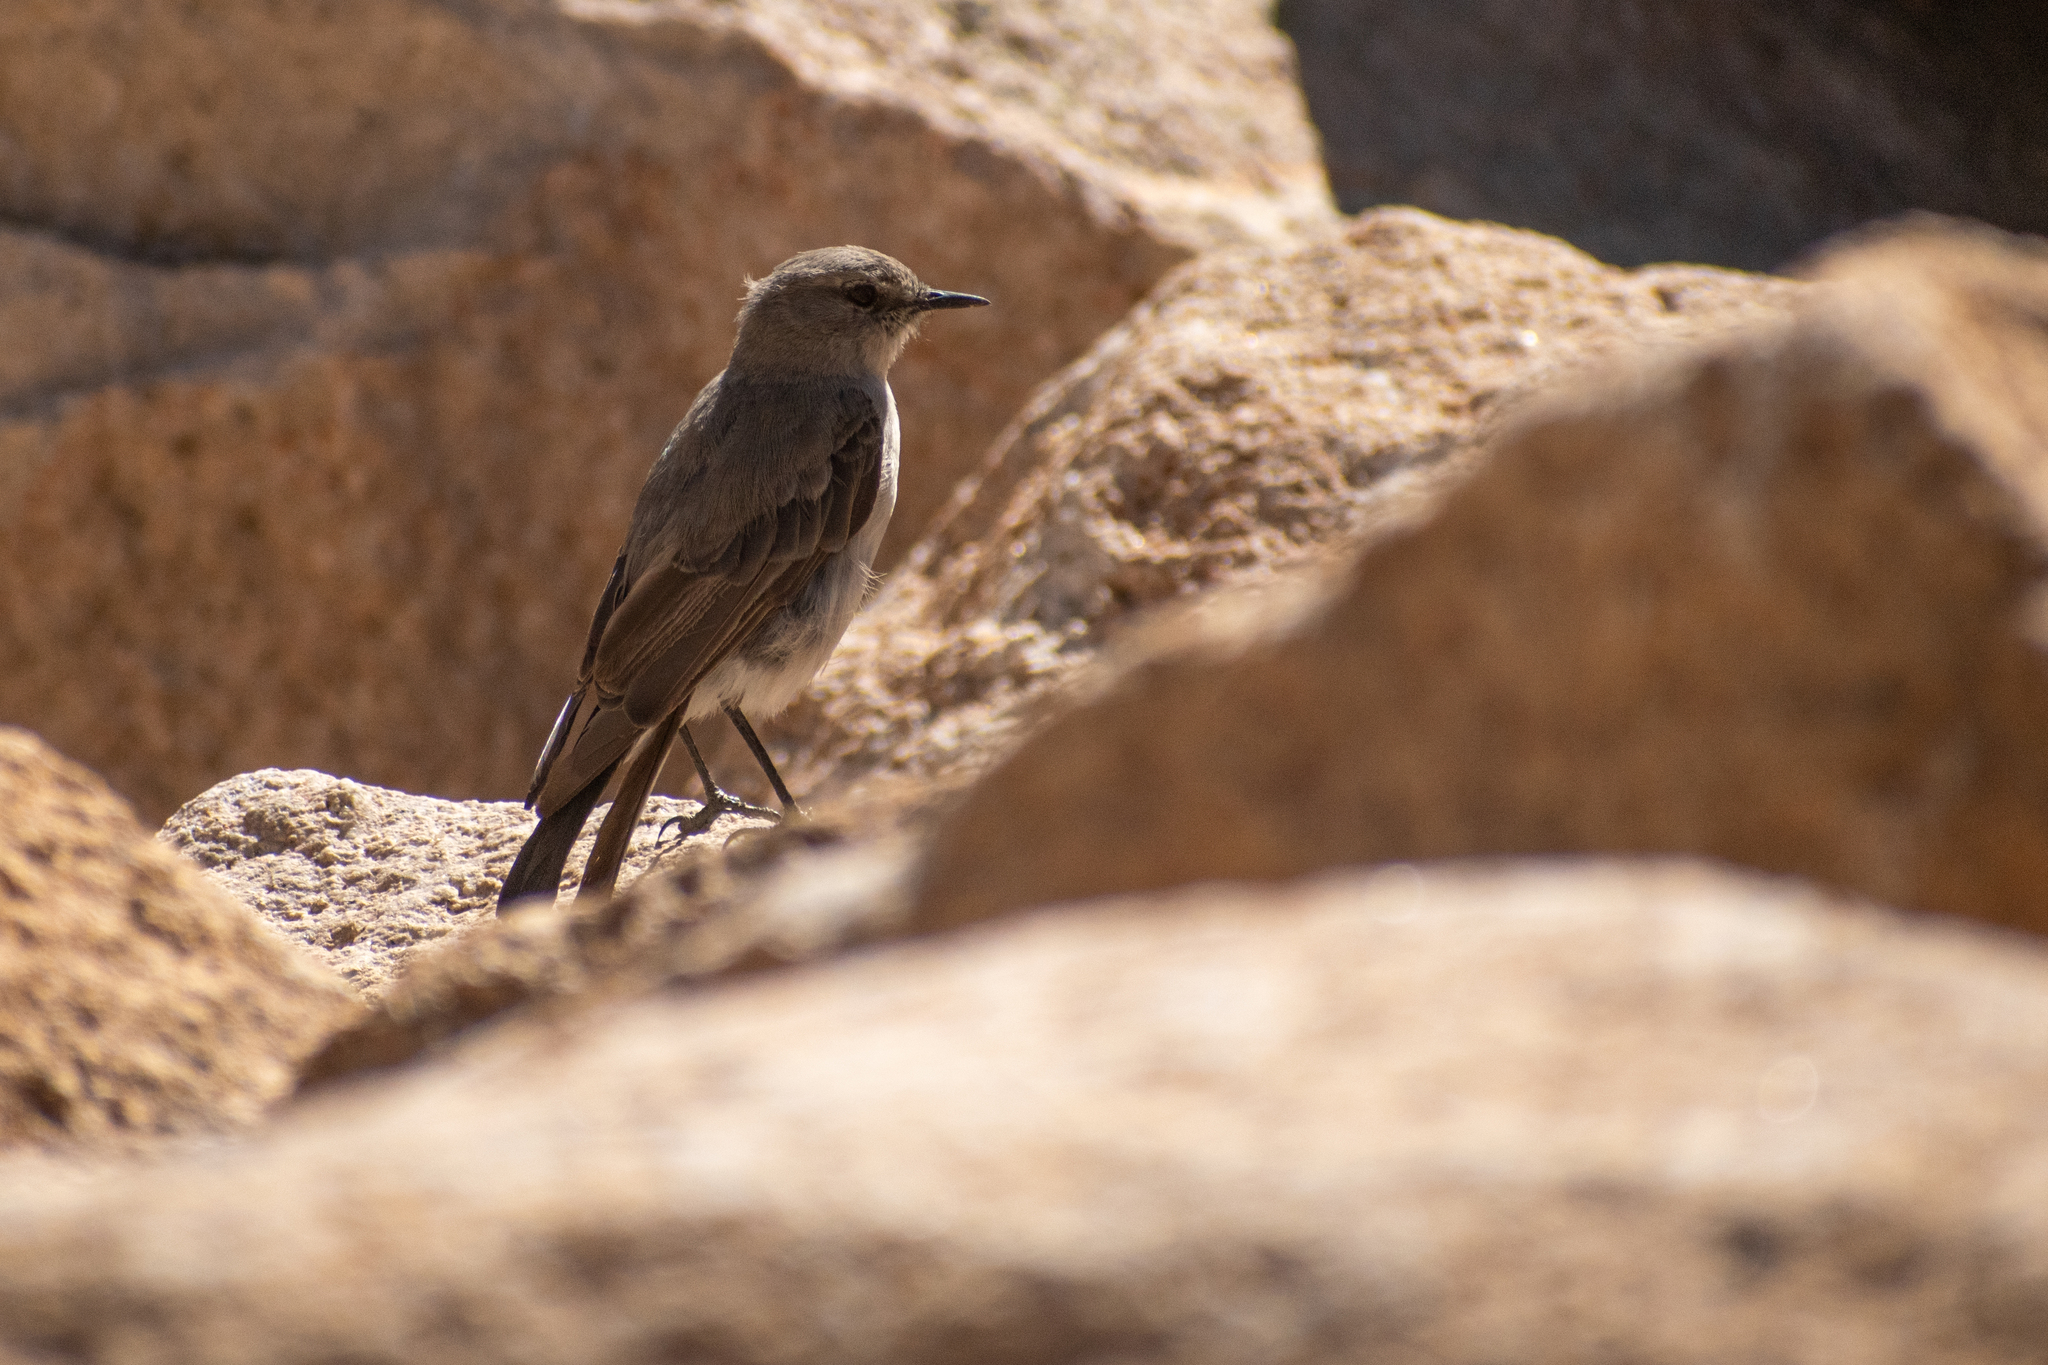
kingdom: Animalia
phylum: Chordata
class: Aves
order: Passeriformes
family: Tyrannidae
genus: Muscisaxicola
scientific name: Muscisaxicola cinereus
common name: Cinereous ground tyrant
